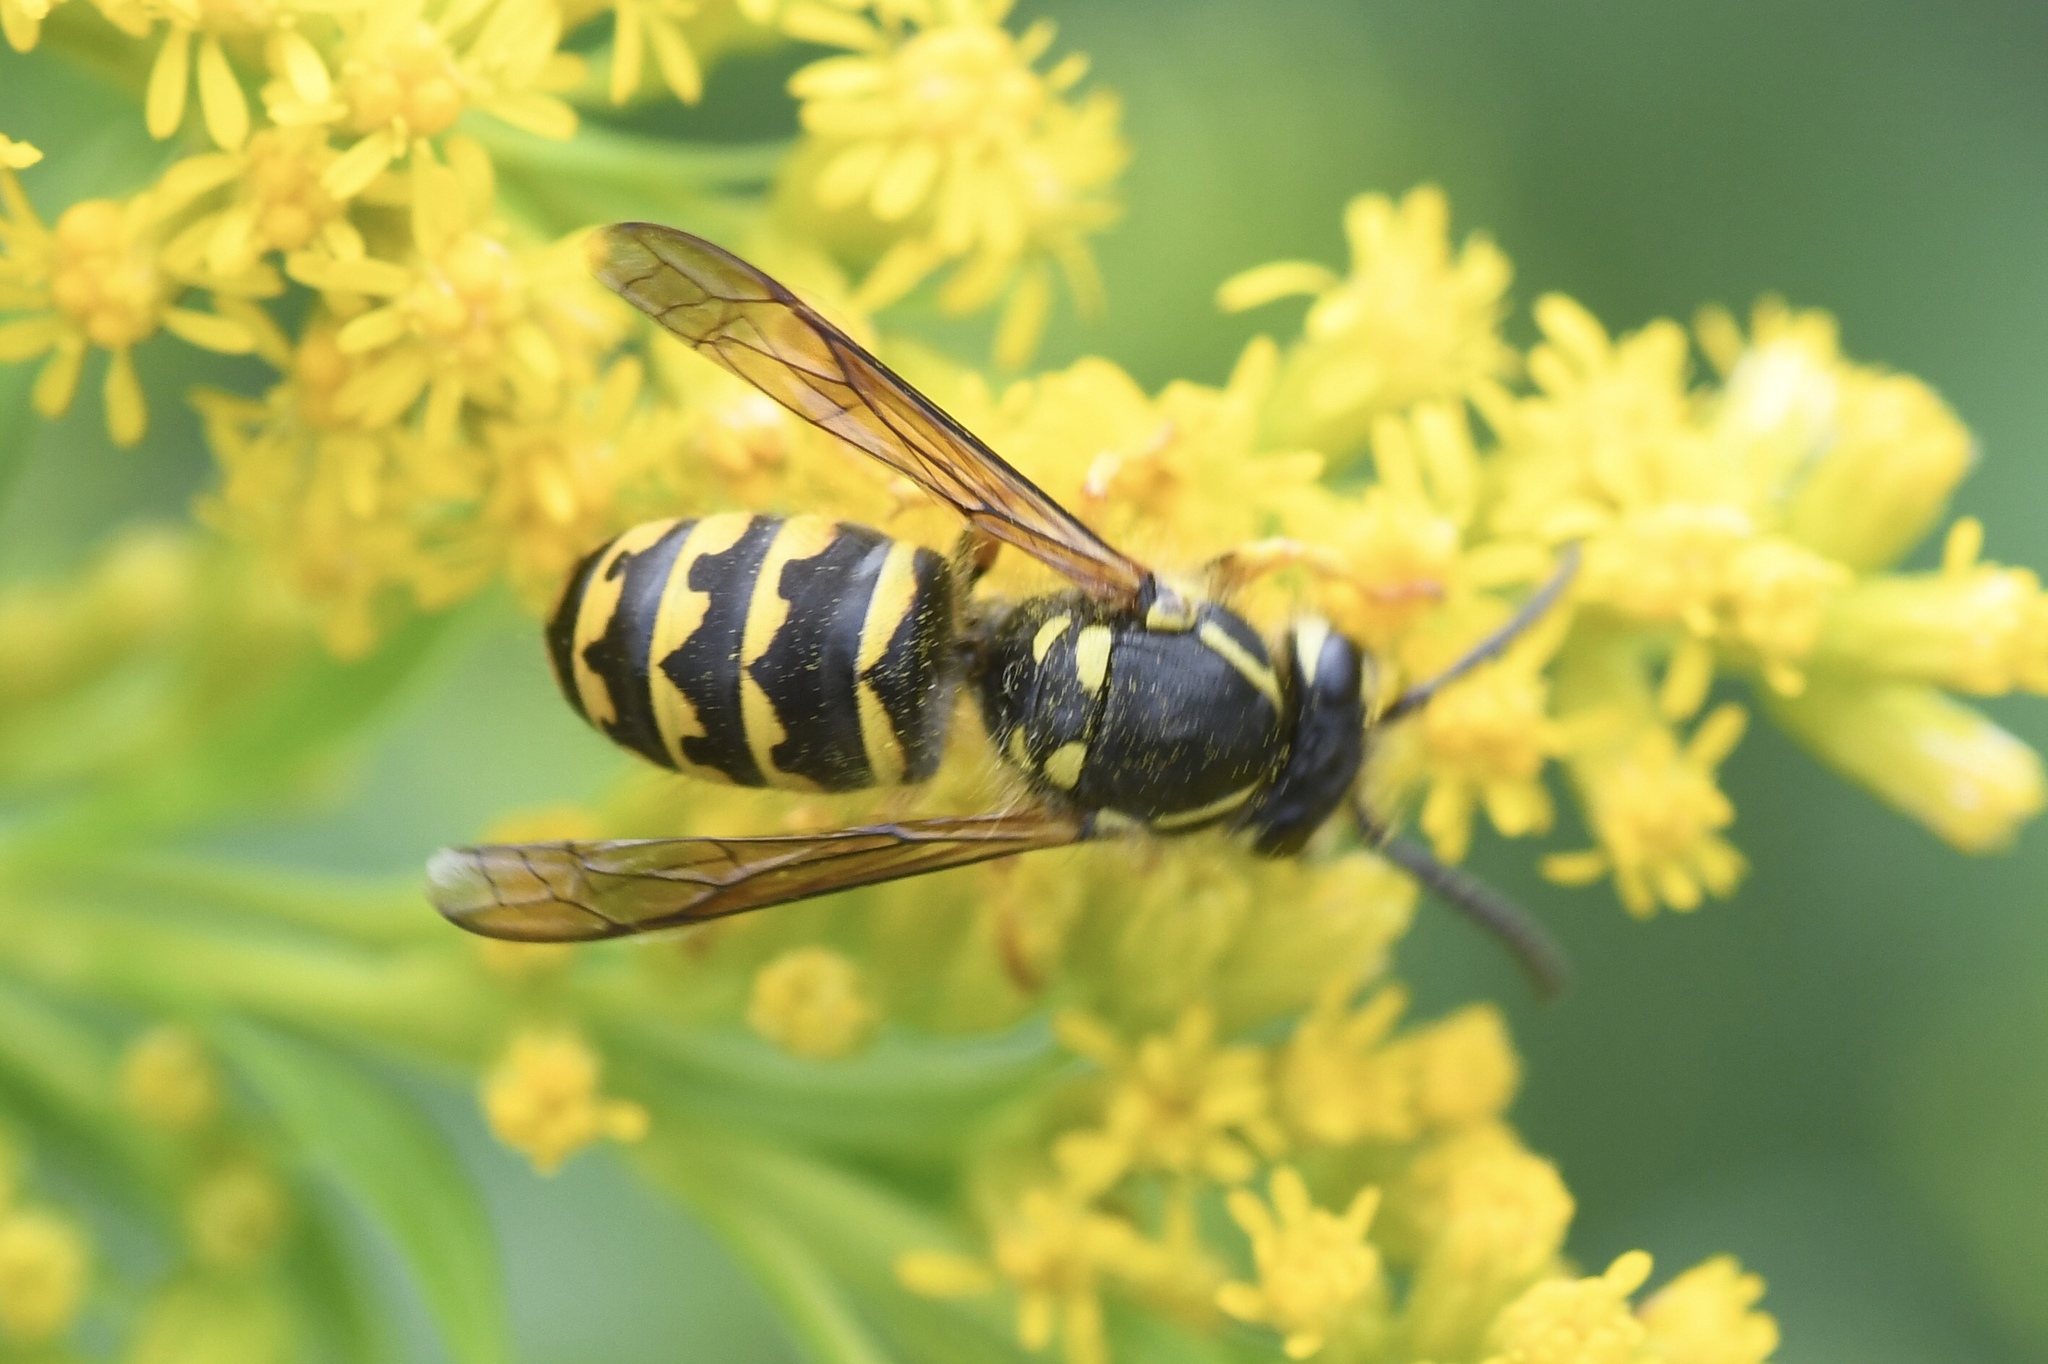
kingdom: Animalia
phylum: Arthropoda
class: Insecta
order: Hymenoptera
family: Vespidae
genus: Dolichovespula
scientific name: Dolichovespula arenaria
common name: Aerial yellowjacket
